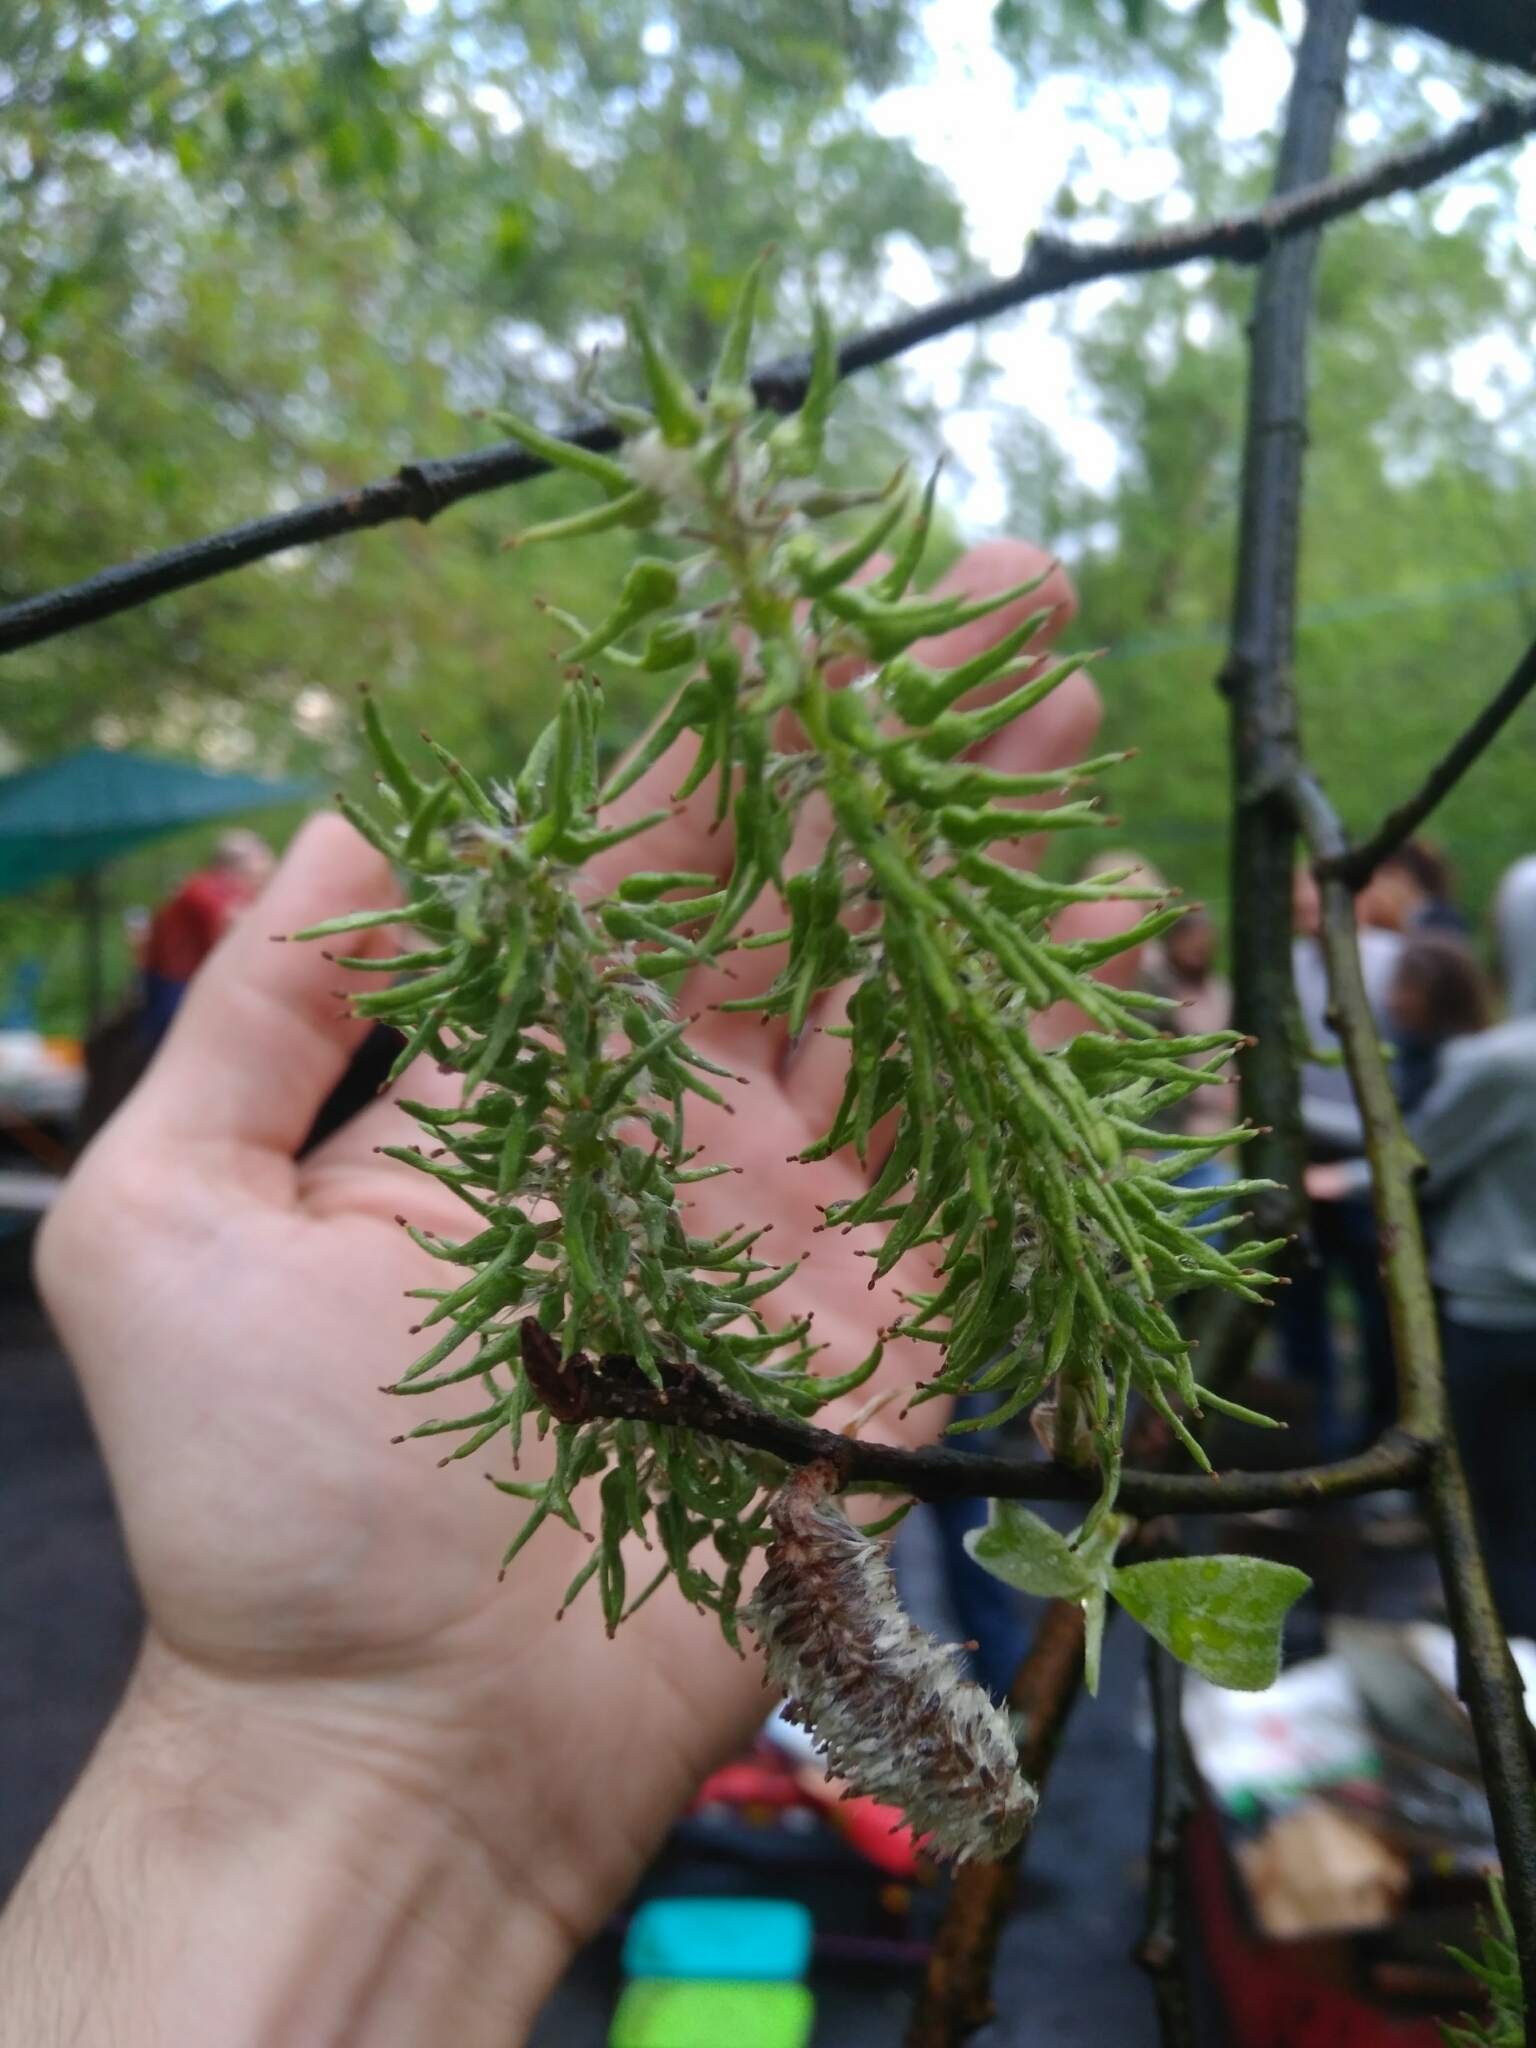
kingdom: Plantae
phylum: Tracheophyta
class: Magnoliopsida
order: Malpighiales
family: Salicaceae
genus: Salix
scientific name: Salix caprea
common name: Goat willow
